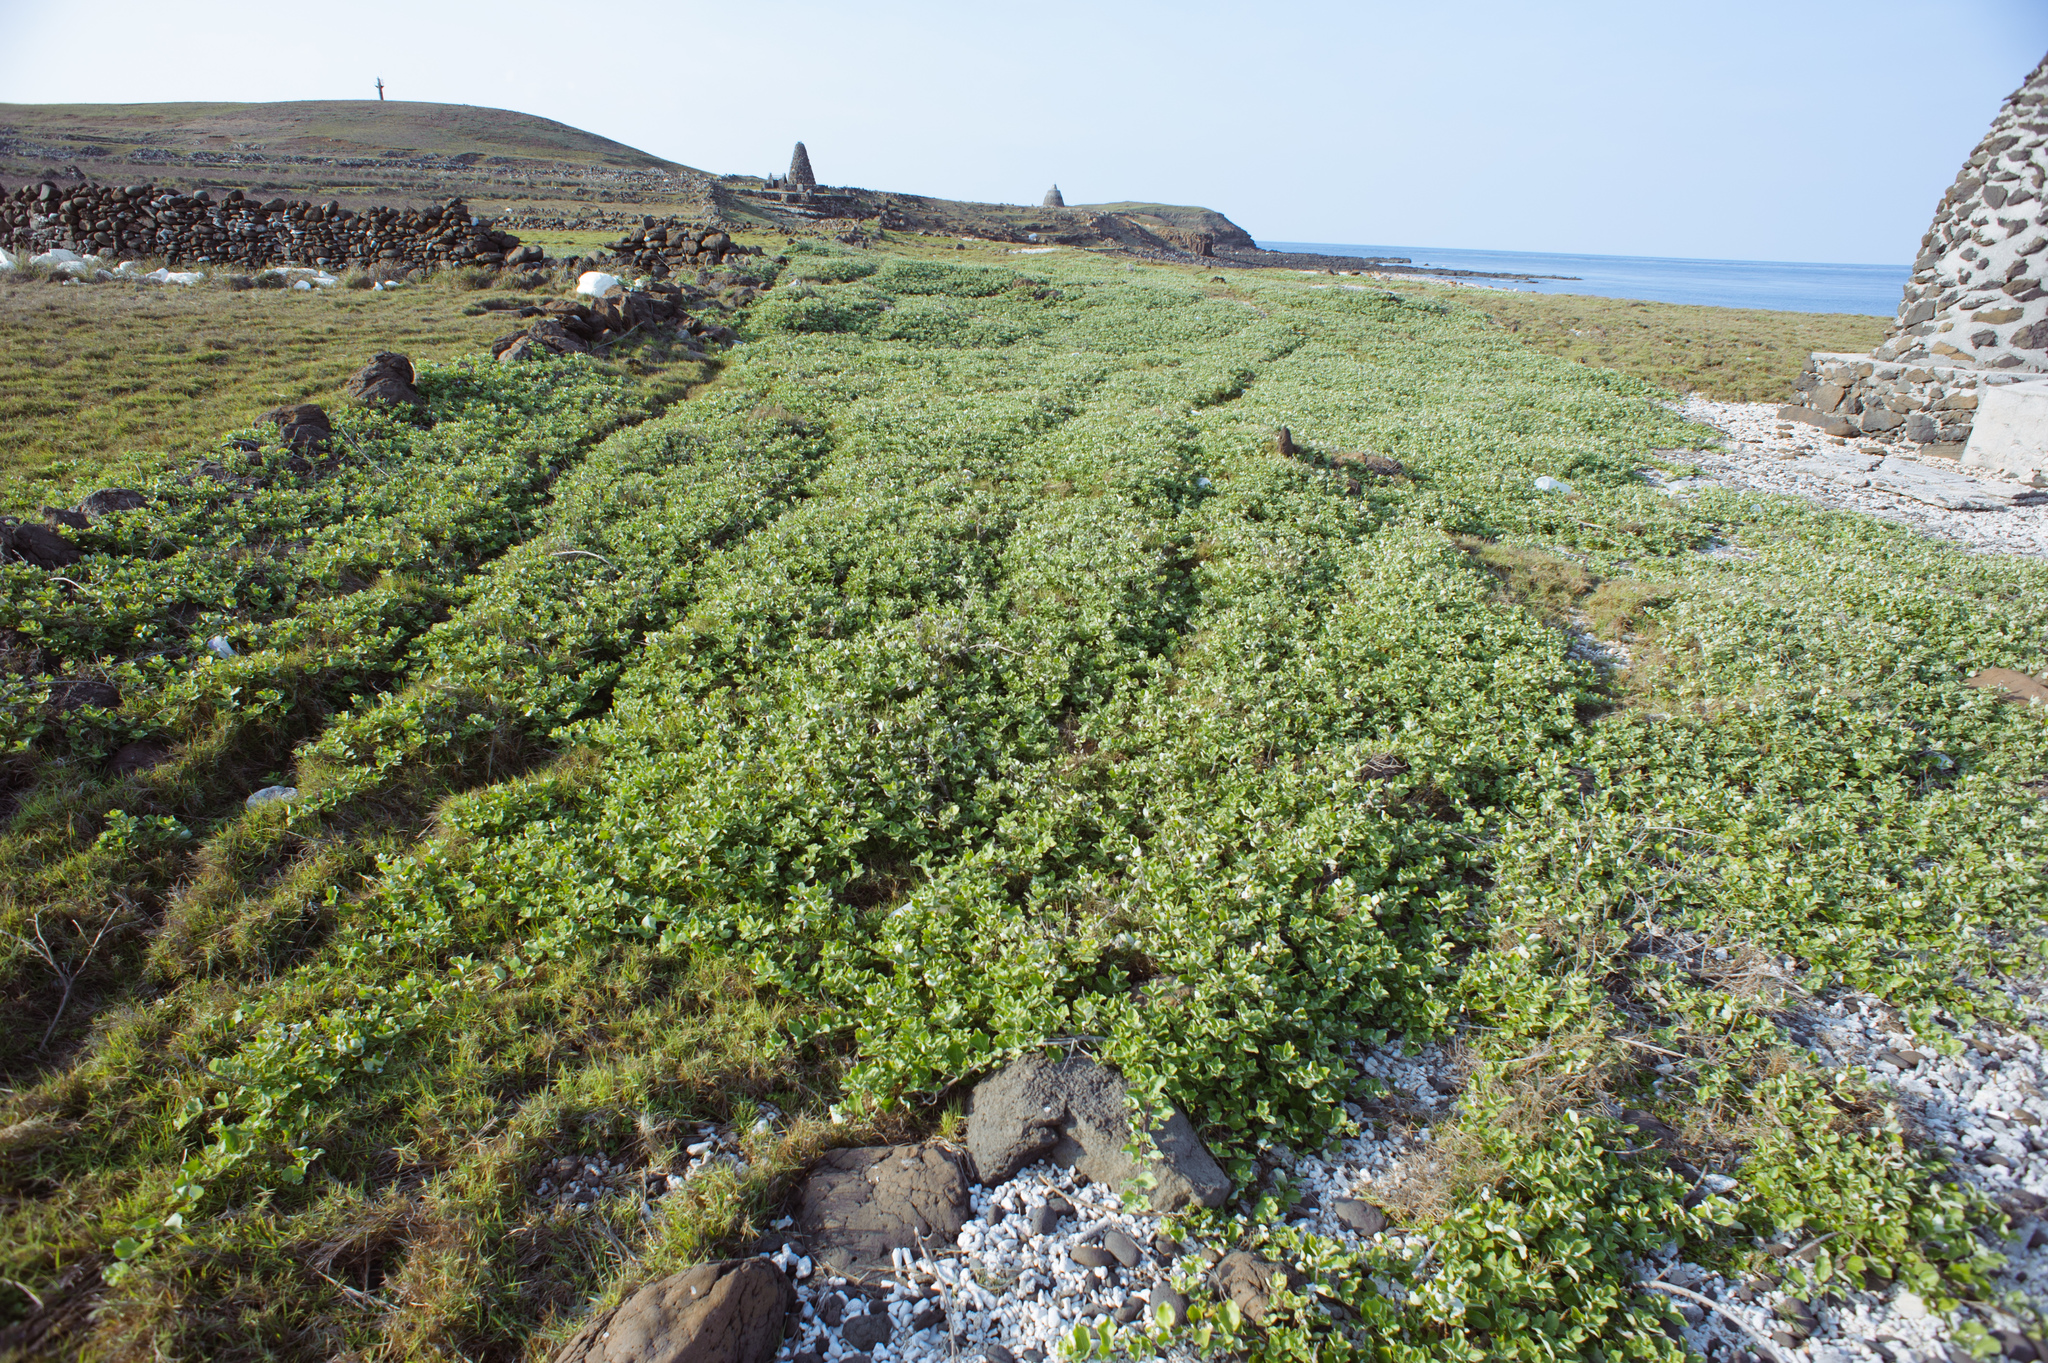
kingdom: Plantae
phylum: Tracheophyta
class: Magnoliopsida
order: Lamiales
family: Lamiaceae
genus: Vitex
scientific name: Vitex rotundifolia
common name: Beach vitex
